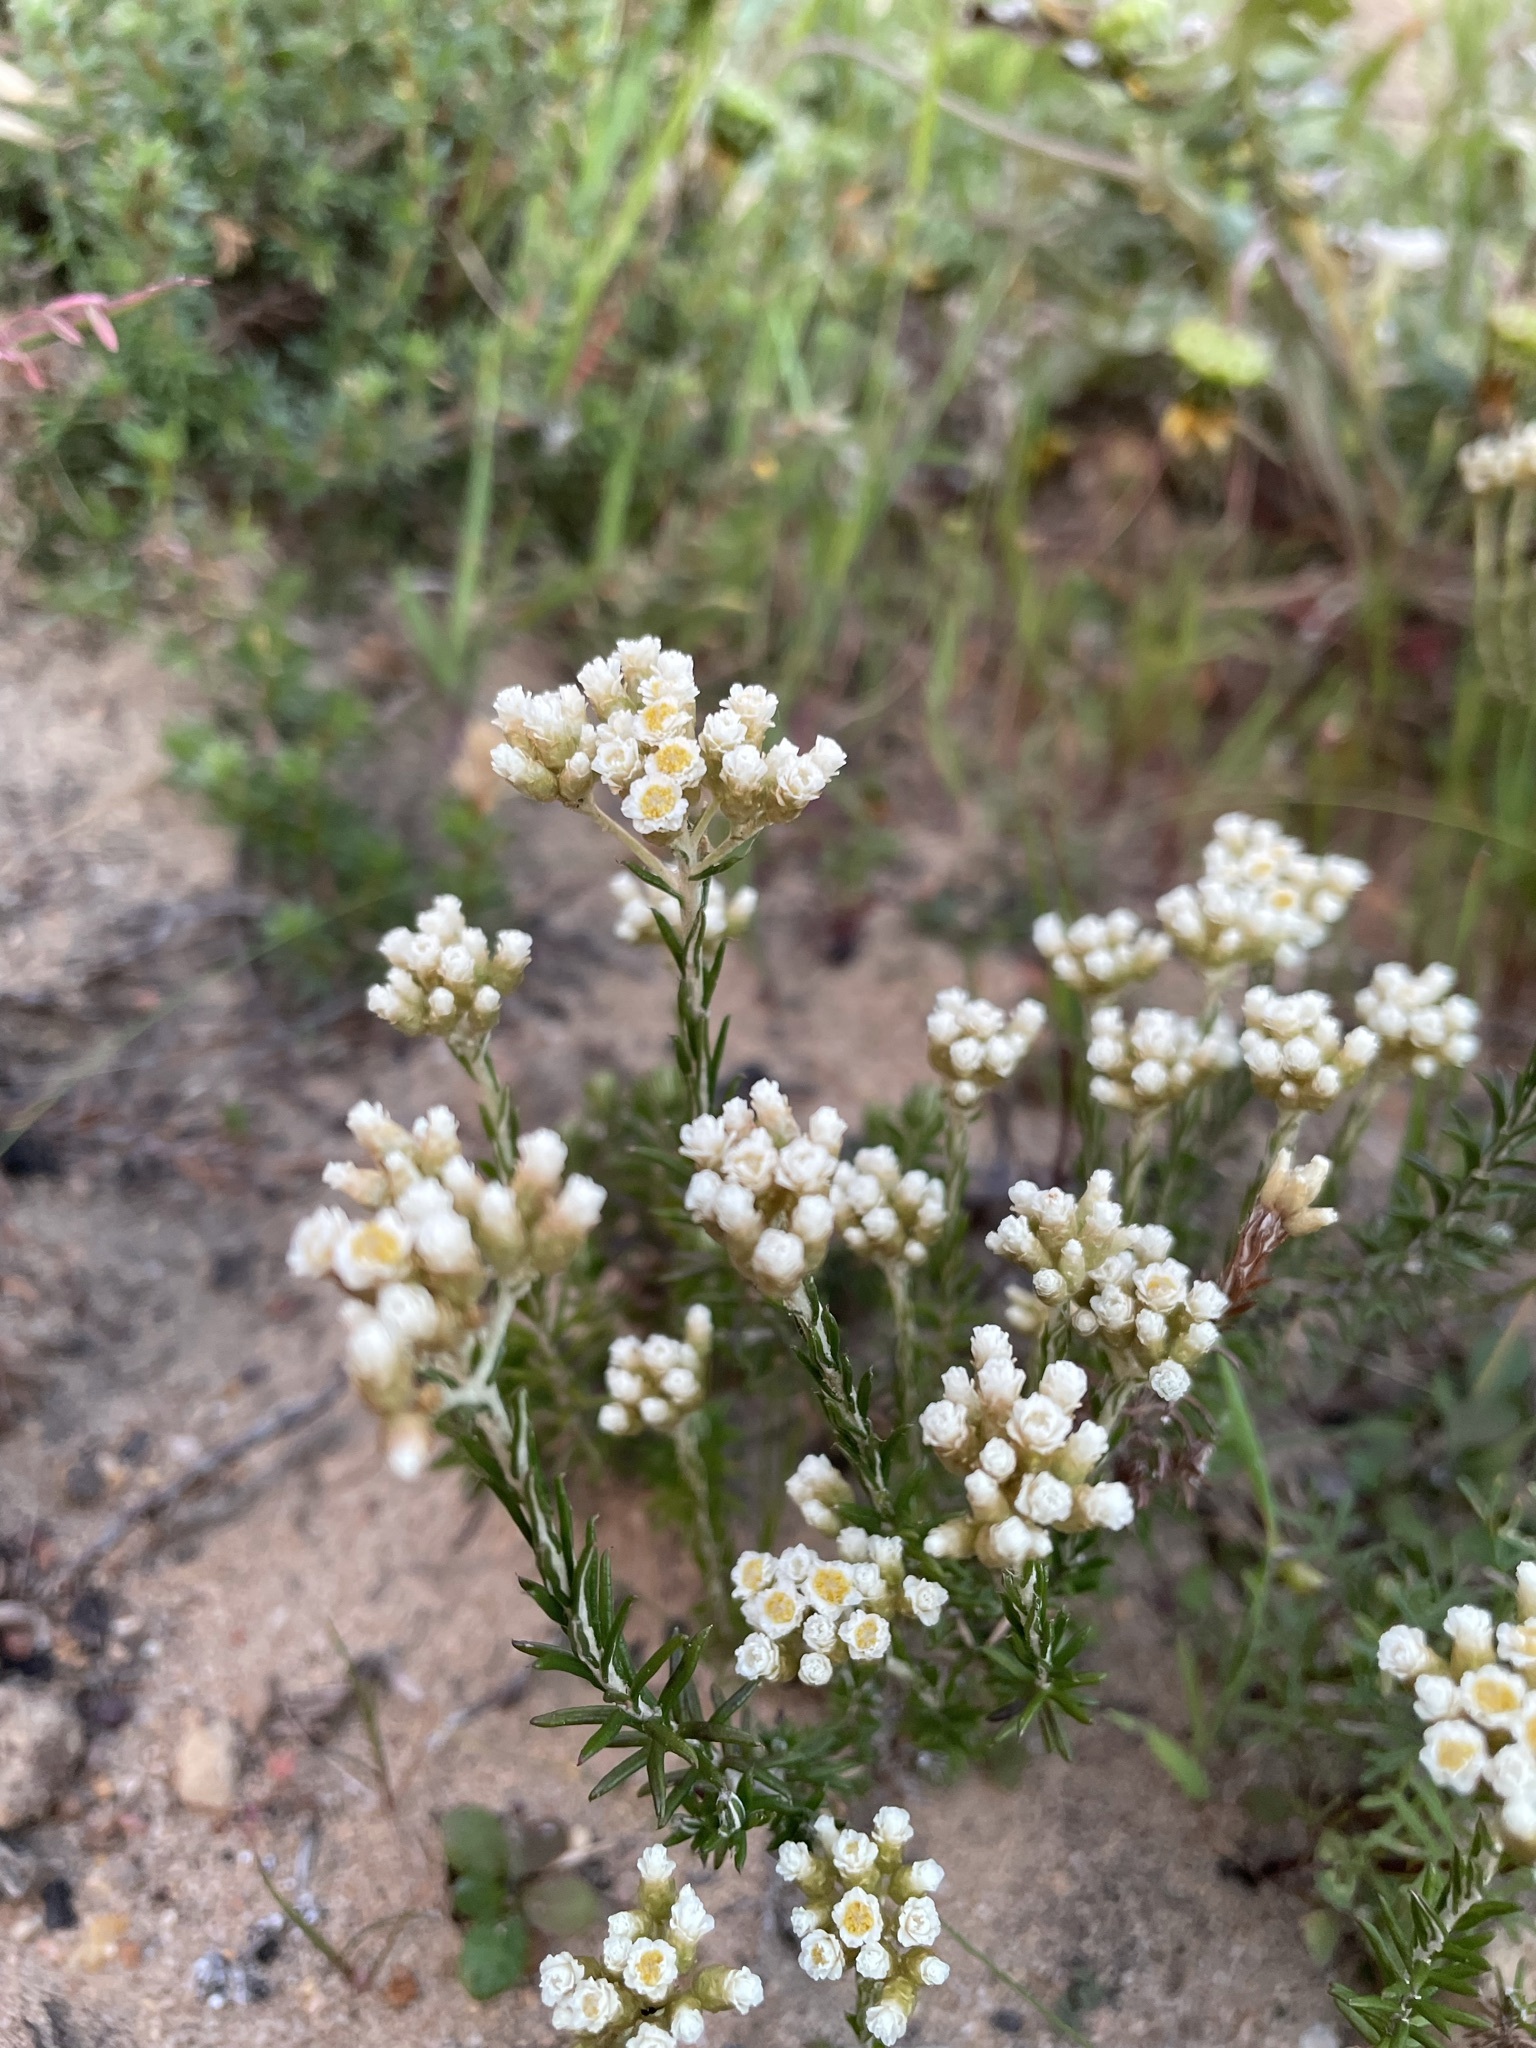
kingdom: Plantae
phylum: Tracheophyta
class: Magnoliopsida
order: Asterales
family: Asteraceae
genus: Helichrysum
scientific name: Helichrysum teretifolium
